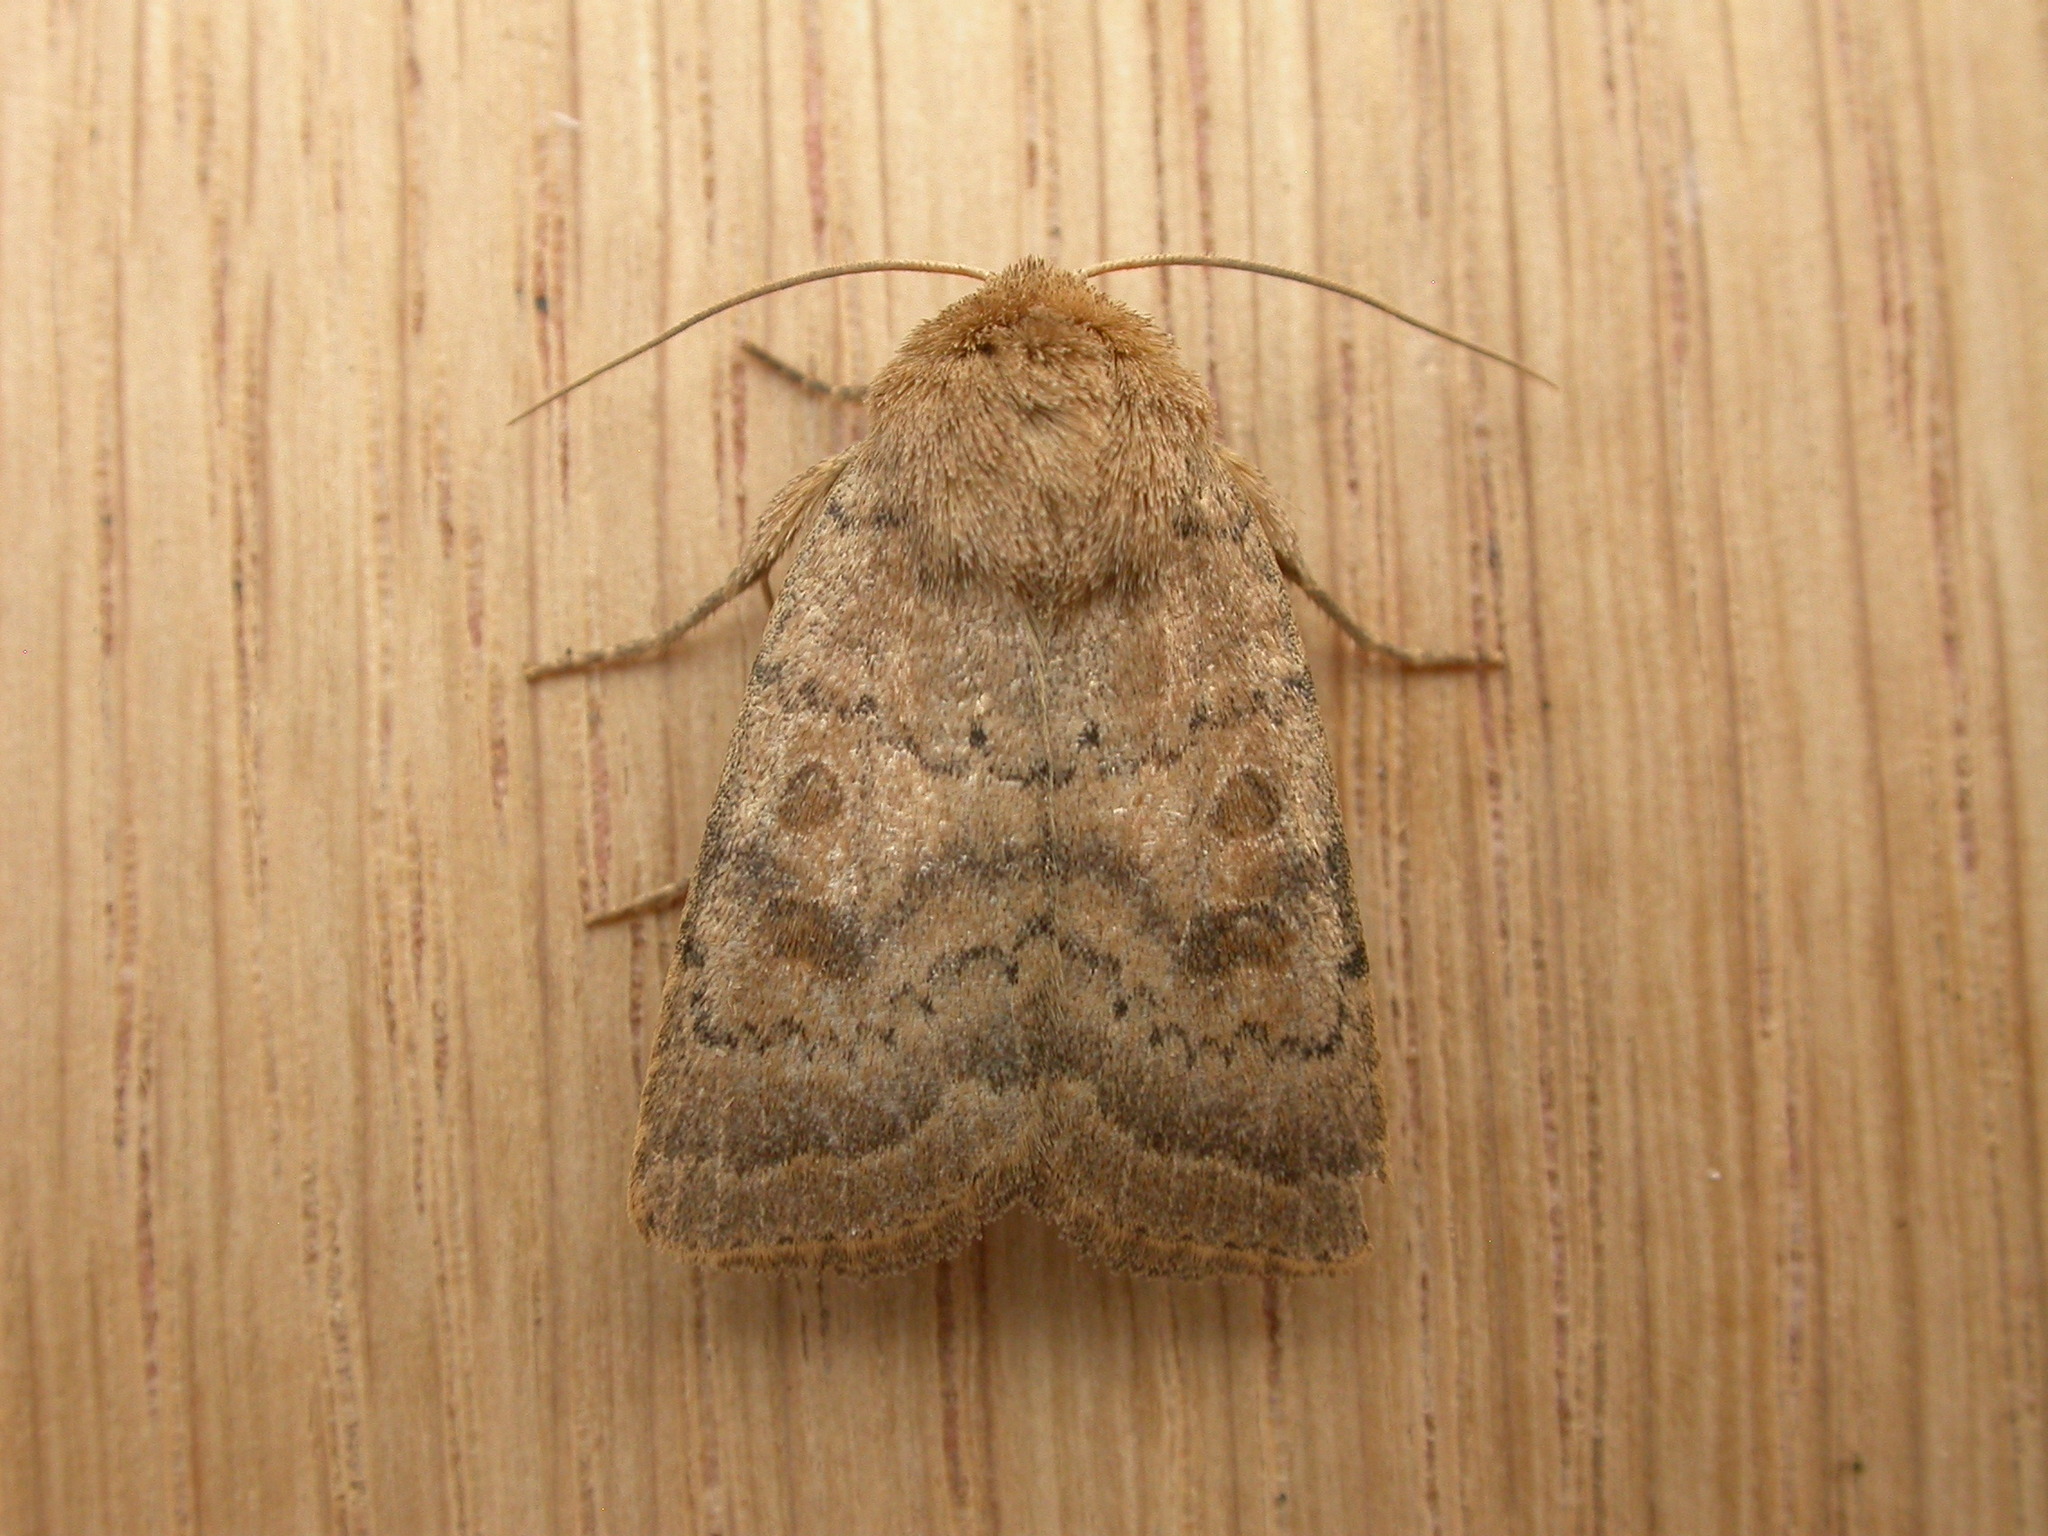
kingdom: Animalia
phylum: Arthropoda
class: Insecta
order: Lepidoptera
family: Noctuidae
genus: Hoplodrina
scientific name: Hoplodrina octogenaria
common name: Uncertain
